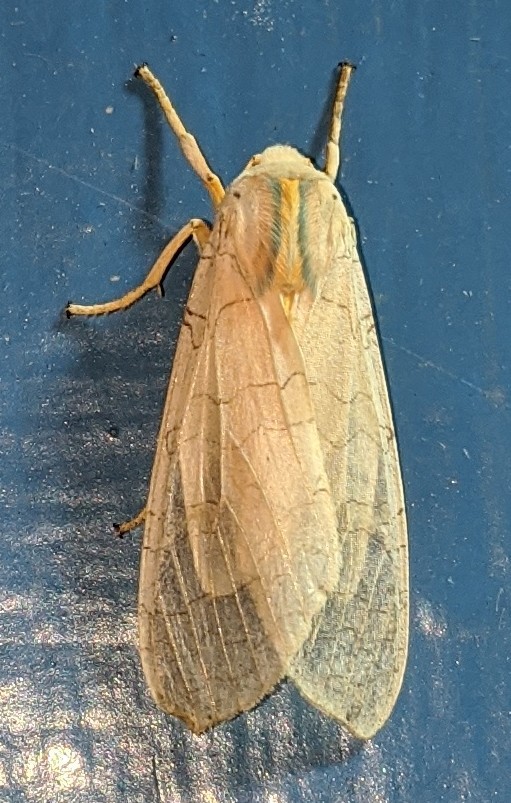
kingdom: Animalia
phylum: Arthropoda
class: Insecta
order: Lepidoptera
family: Erebidae
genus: Halysidota
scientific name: Halysidota tessellaris
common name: Banded tussock moth
